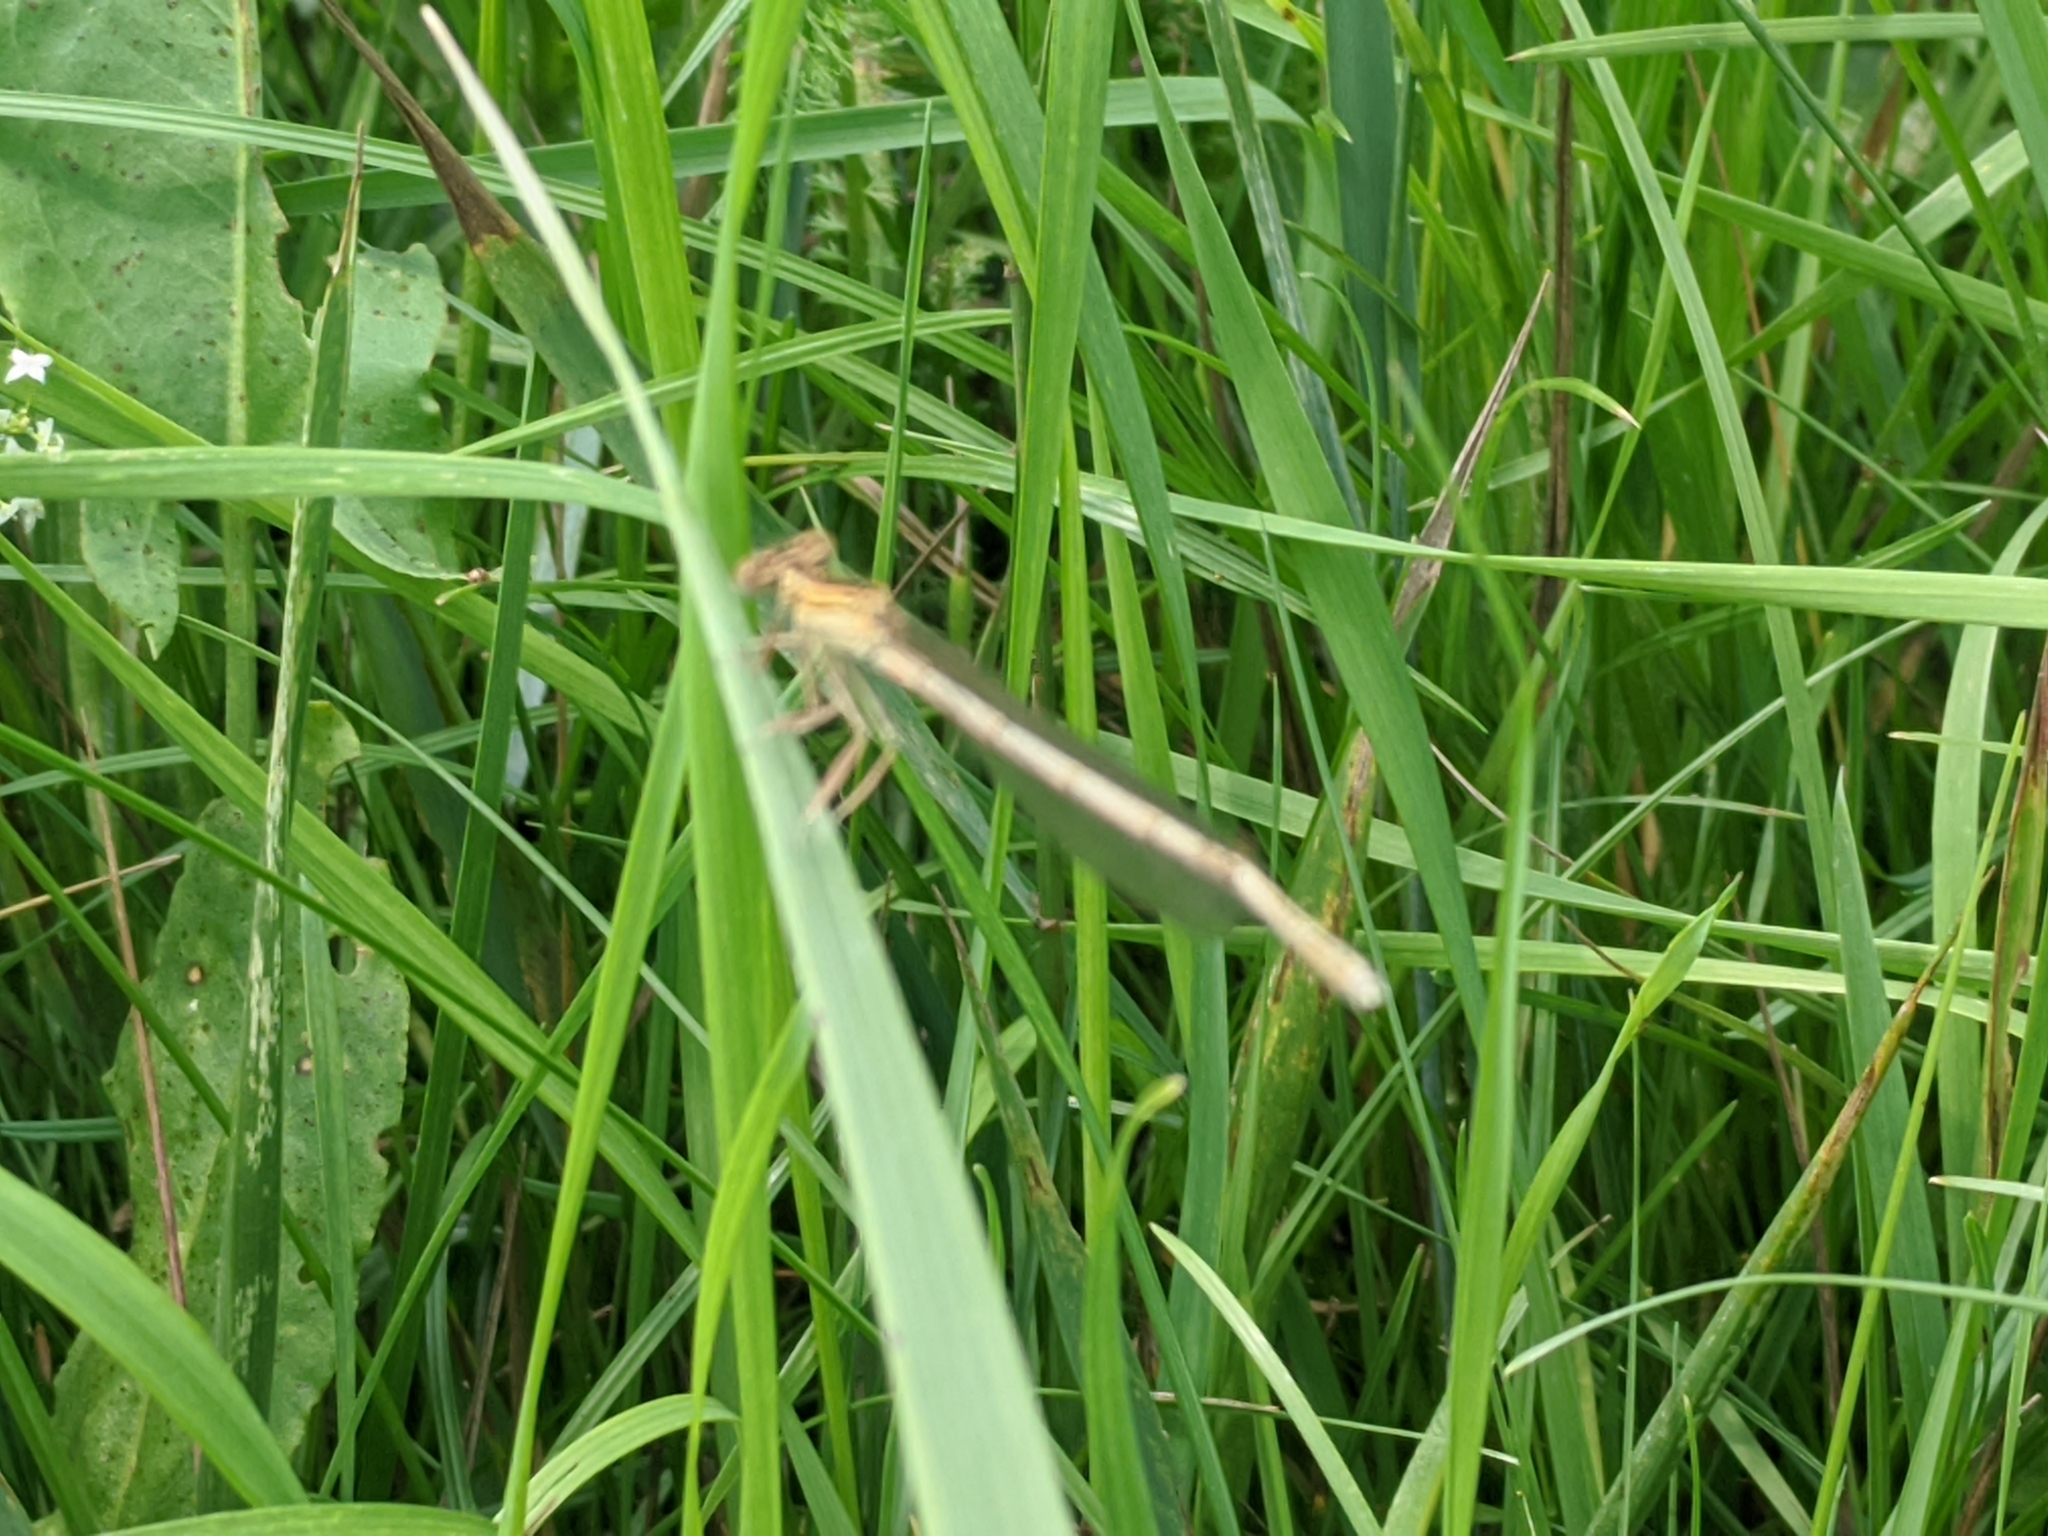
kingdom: Animalia
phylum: Arthropoda
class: Insecta
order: Odonata
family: Platycnemididae
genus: Platycnemis
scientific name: Platycnemis pennipes
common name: White-legged damselfly
